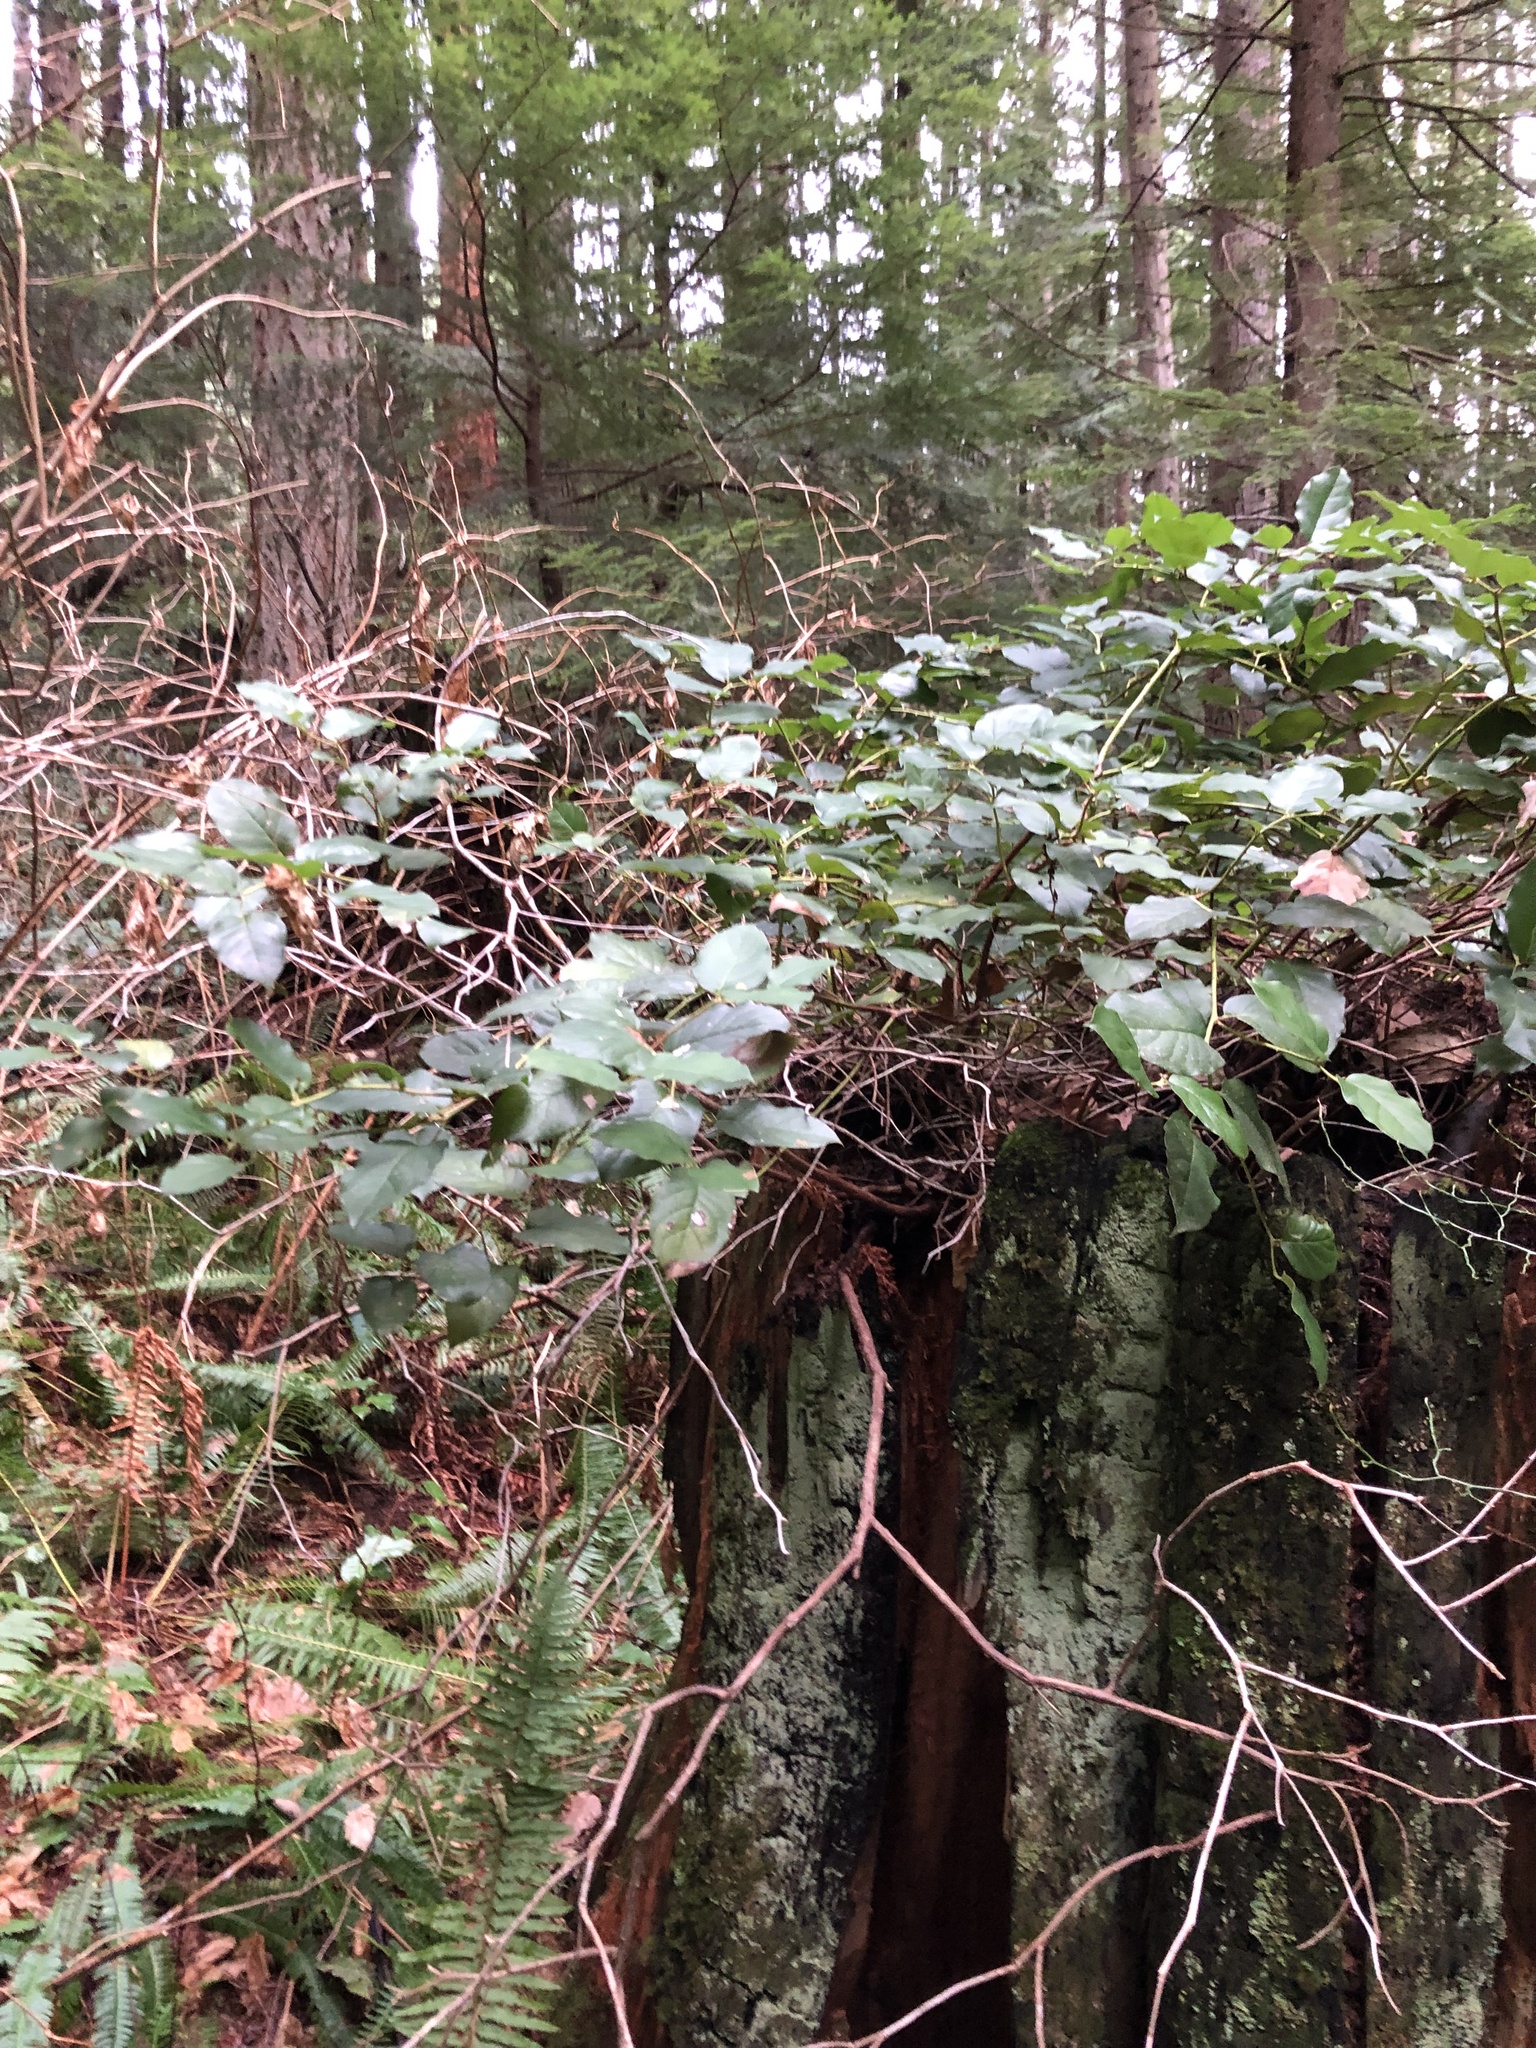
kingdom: Plantae
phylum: Tracheophyta
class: Magnoliopsida
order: Ericales
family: Ericaceae
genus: Gaultheria
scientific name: Gaultheria shallon
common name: Shallon
